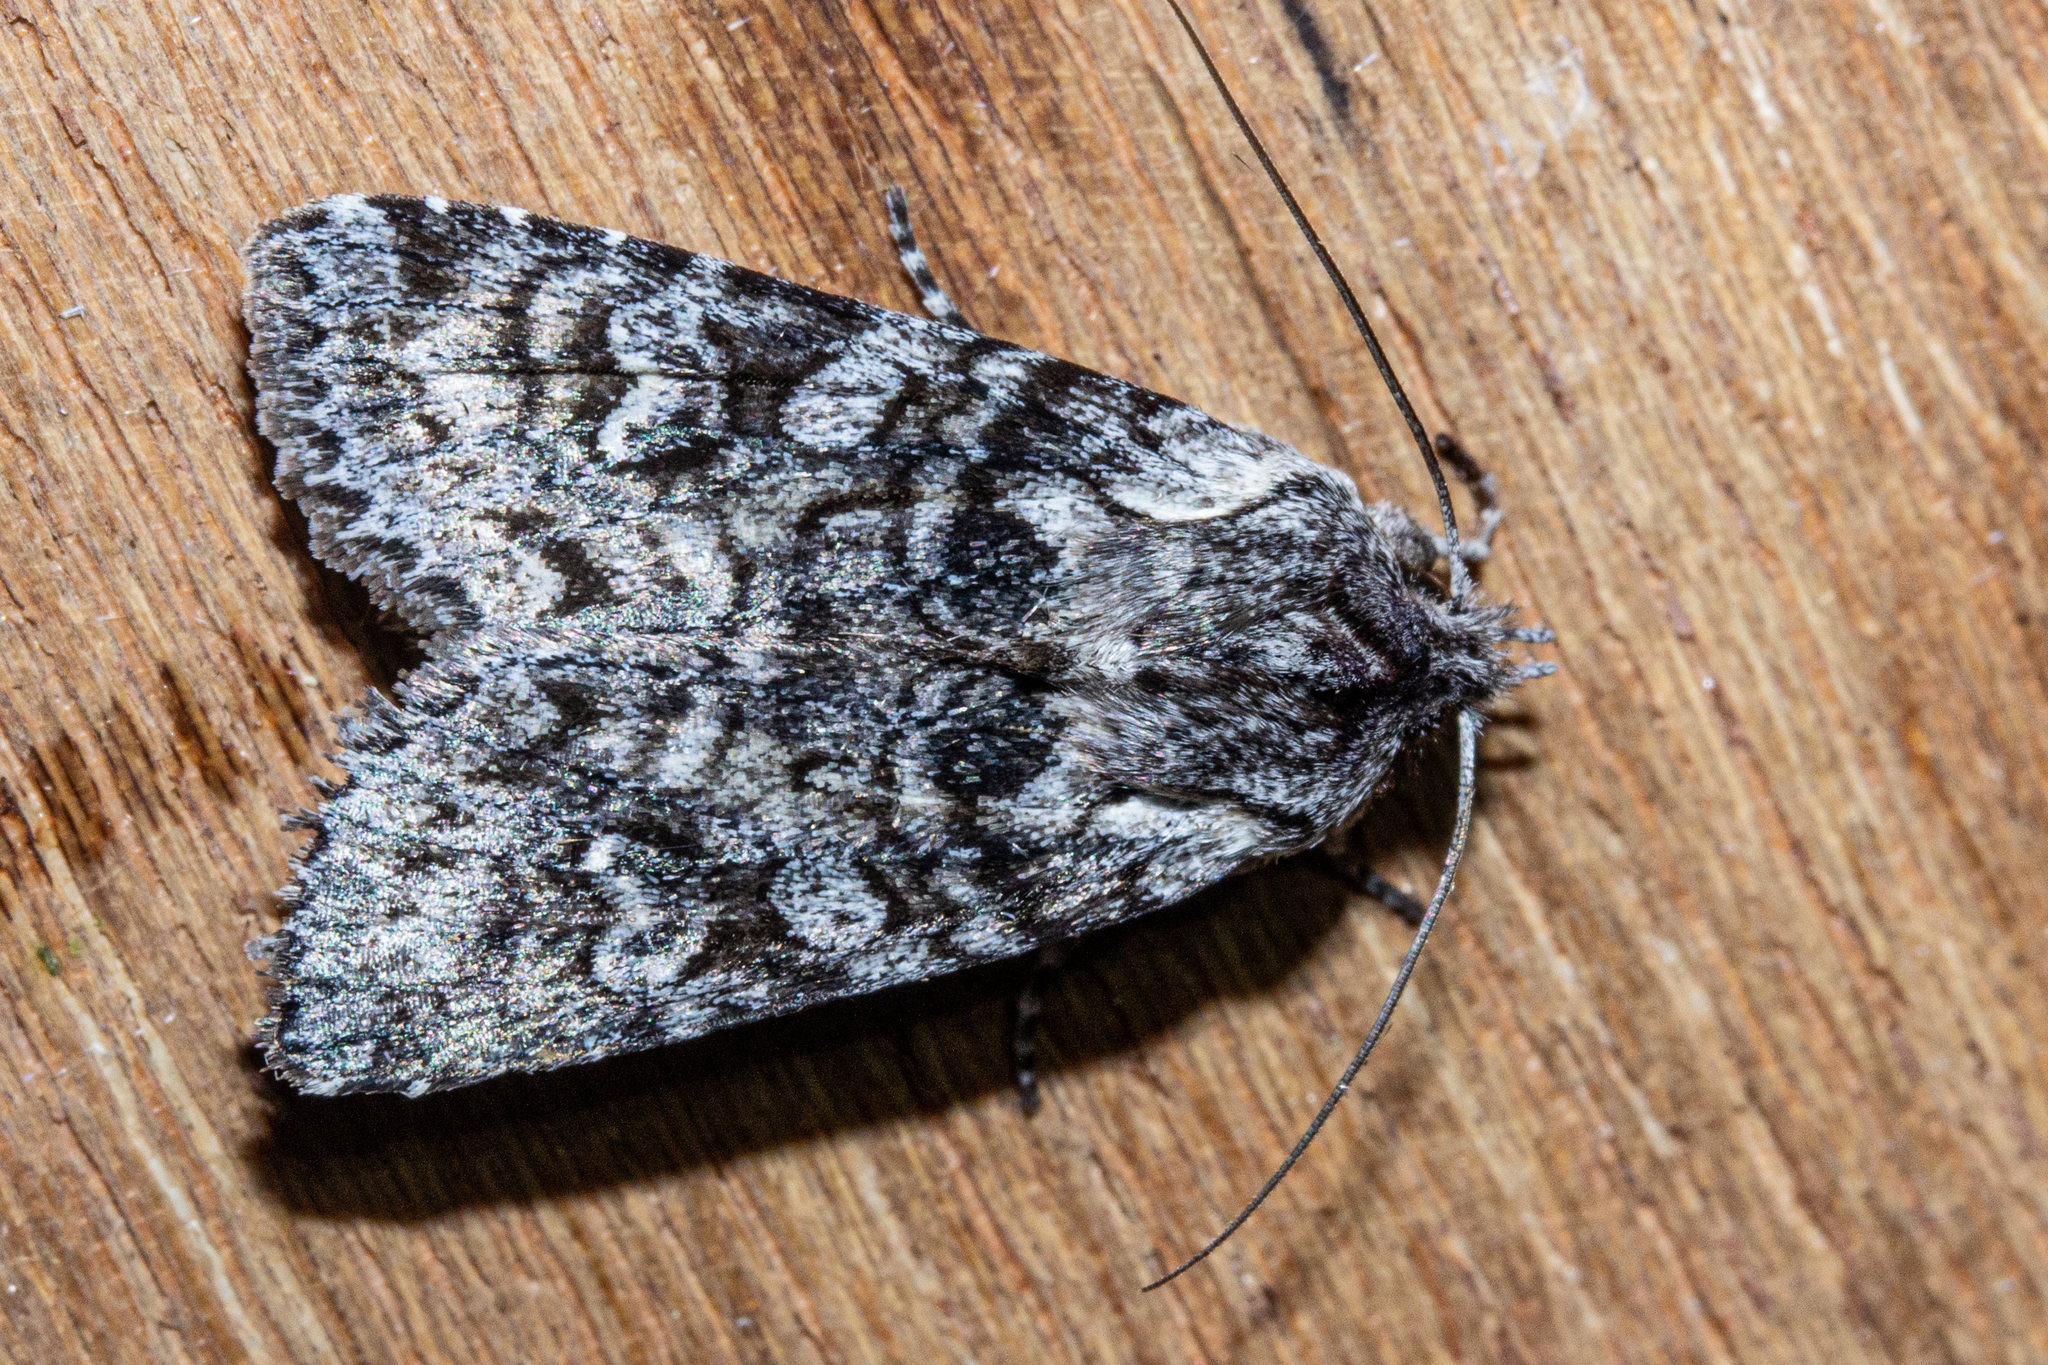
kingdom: Animalia
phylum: Arthropoda
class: Insecta
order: Lepidoptera
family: Noctuidae
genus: Physetica
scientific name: Physetica longstaffii
